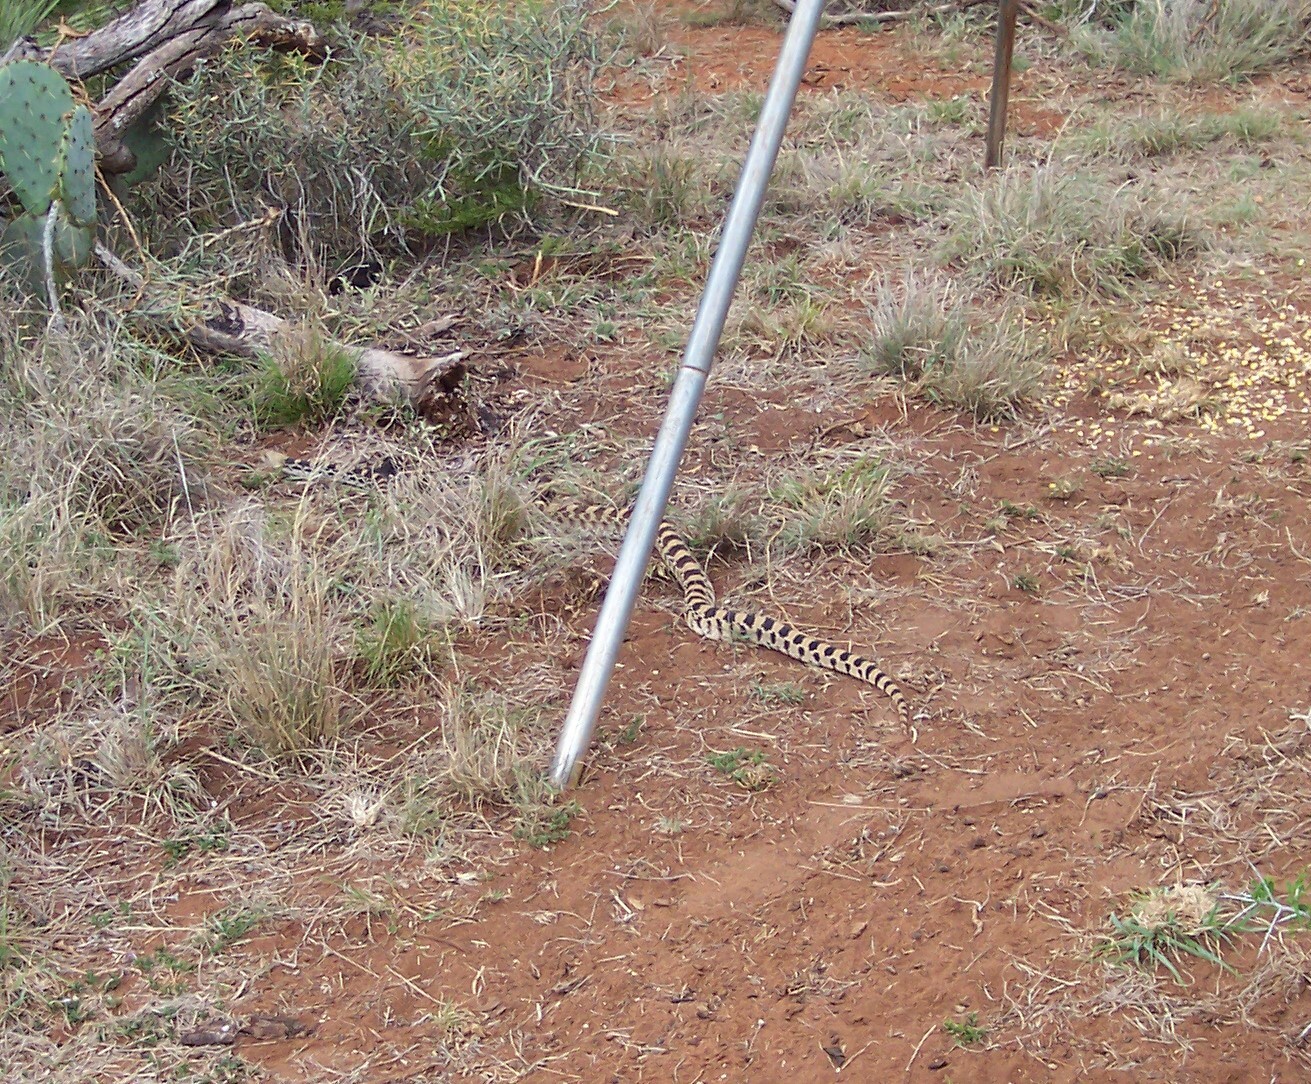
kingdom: Animalia
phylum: Chordata
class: Squamata
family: Colubridae
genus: Pituophis
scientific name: Pituophis catenifer
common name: Gopher snake
